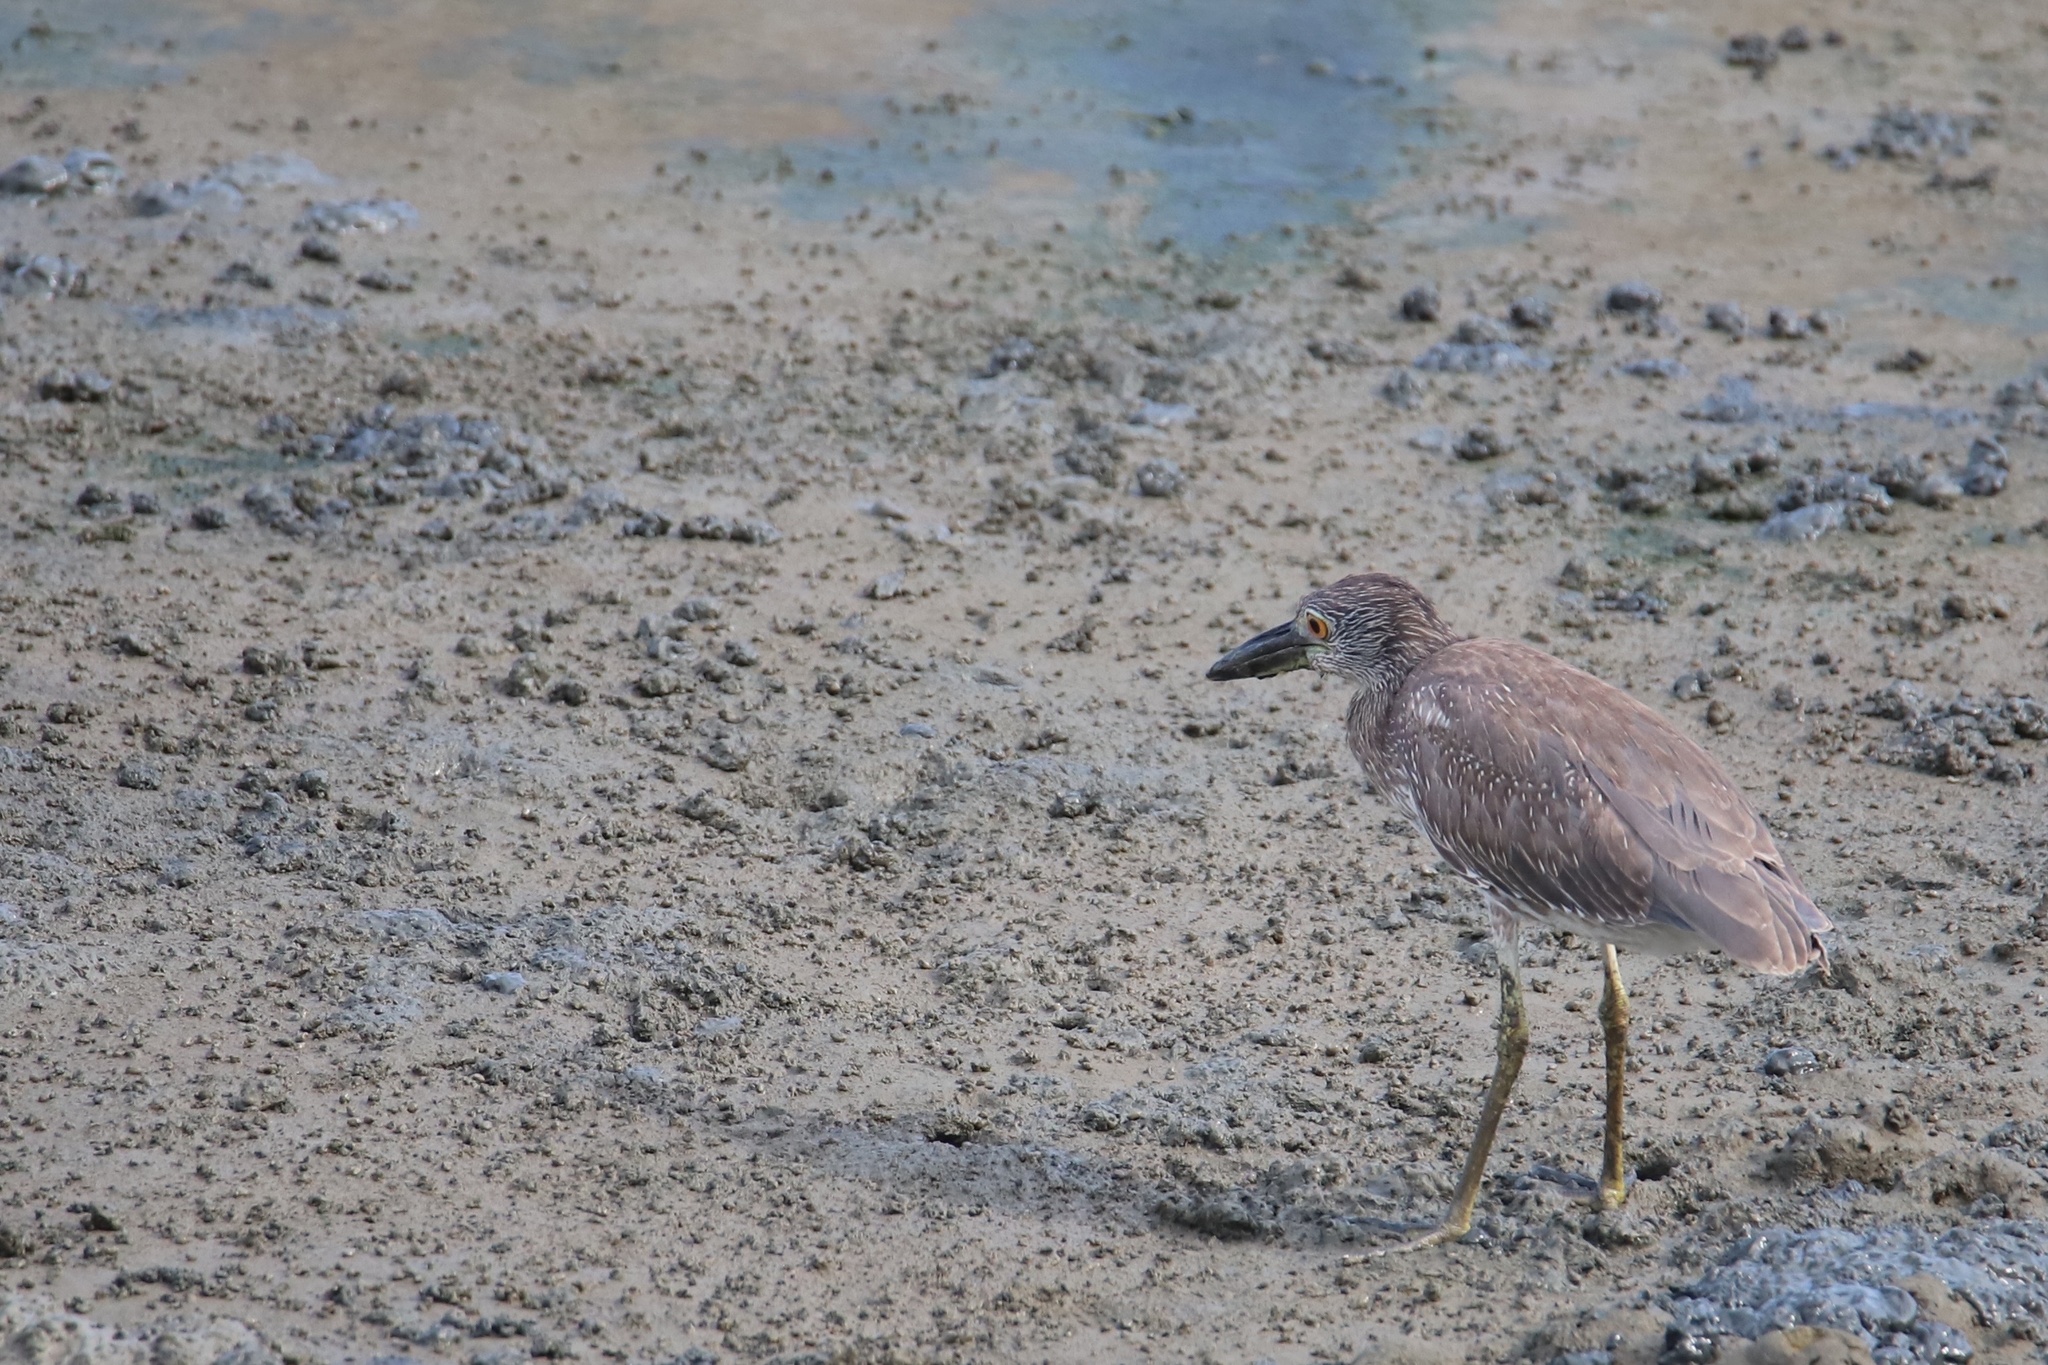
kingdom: Animalia
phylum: Chordata
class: Aves
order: Pelecaniformes
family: Ardeidae
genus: Nyctanassa
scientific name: Nyctanassa violacea
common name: Yellow-crowned night heron
